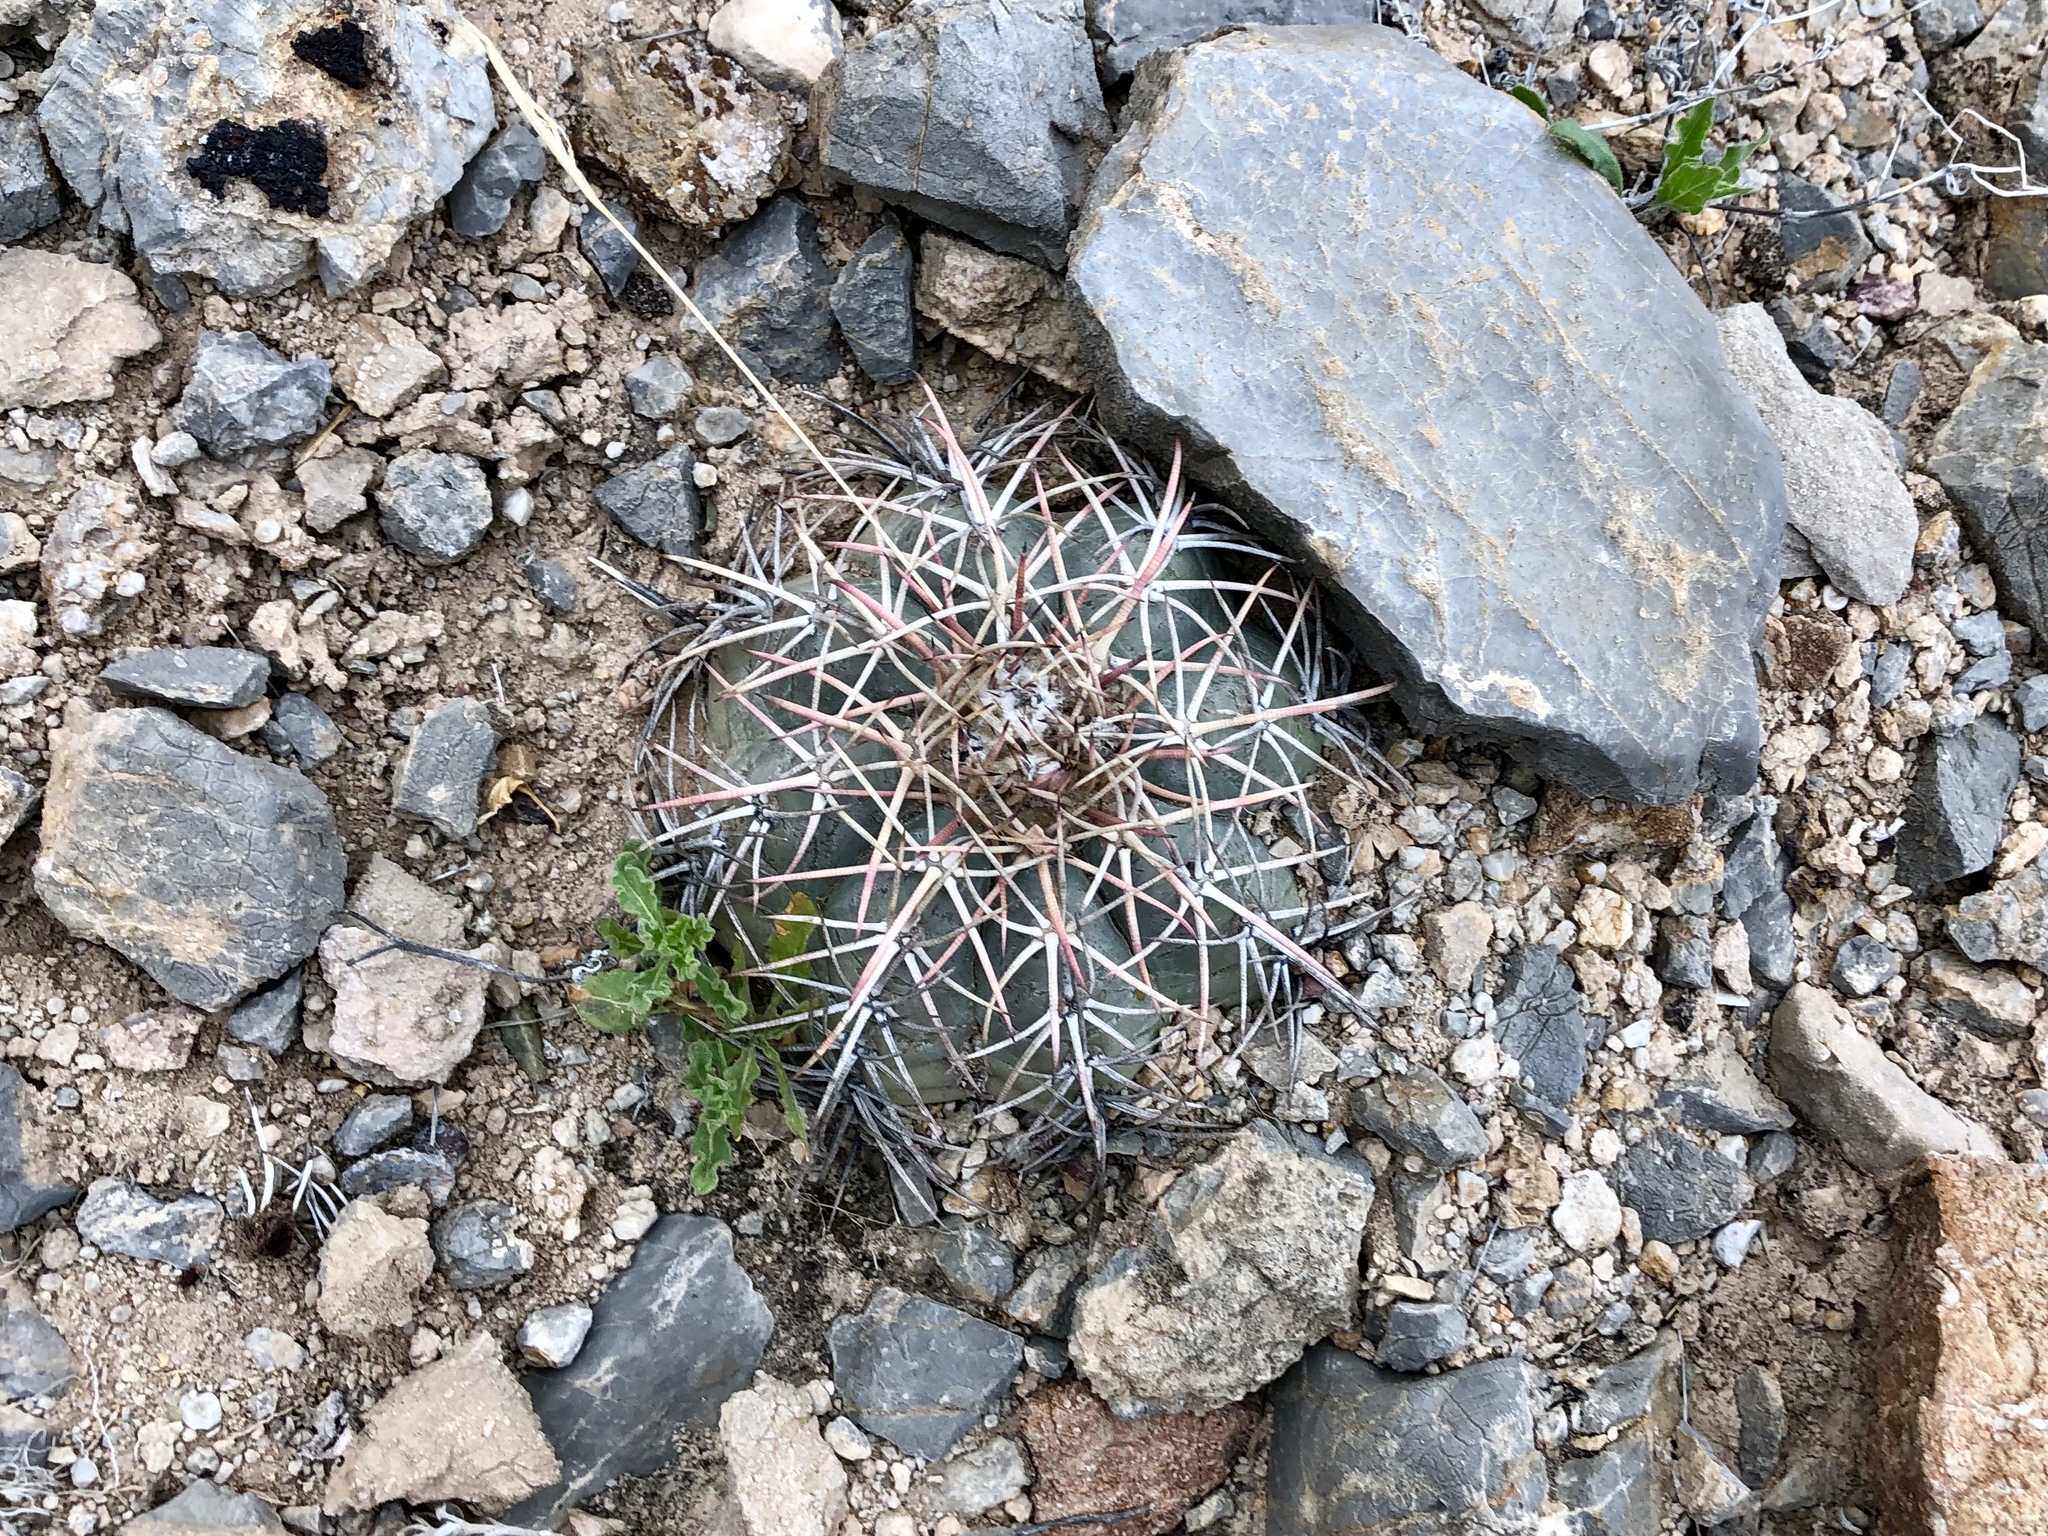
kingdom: Plantae
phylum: Tracheophyta
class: Magnoliopsida
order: Caryophyllales
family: Cactaceae
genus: Echinocactus
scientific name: Echinocactus horizonthalonius
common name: Devilshead
